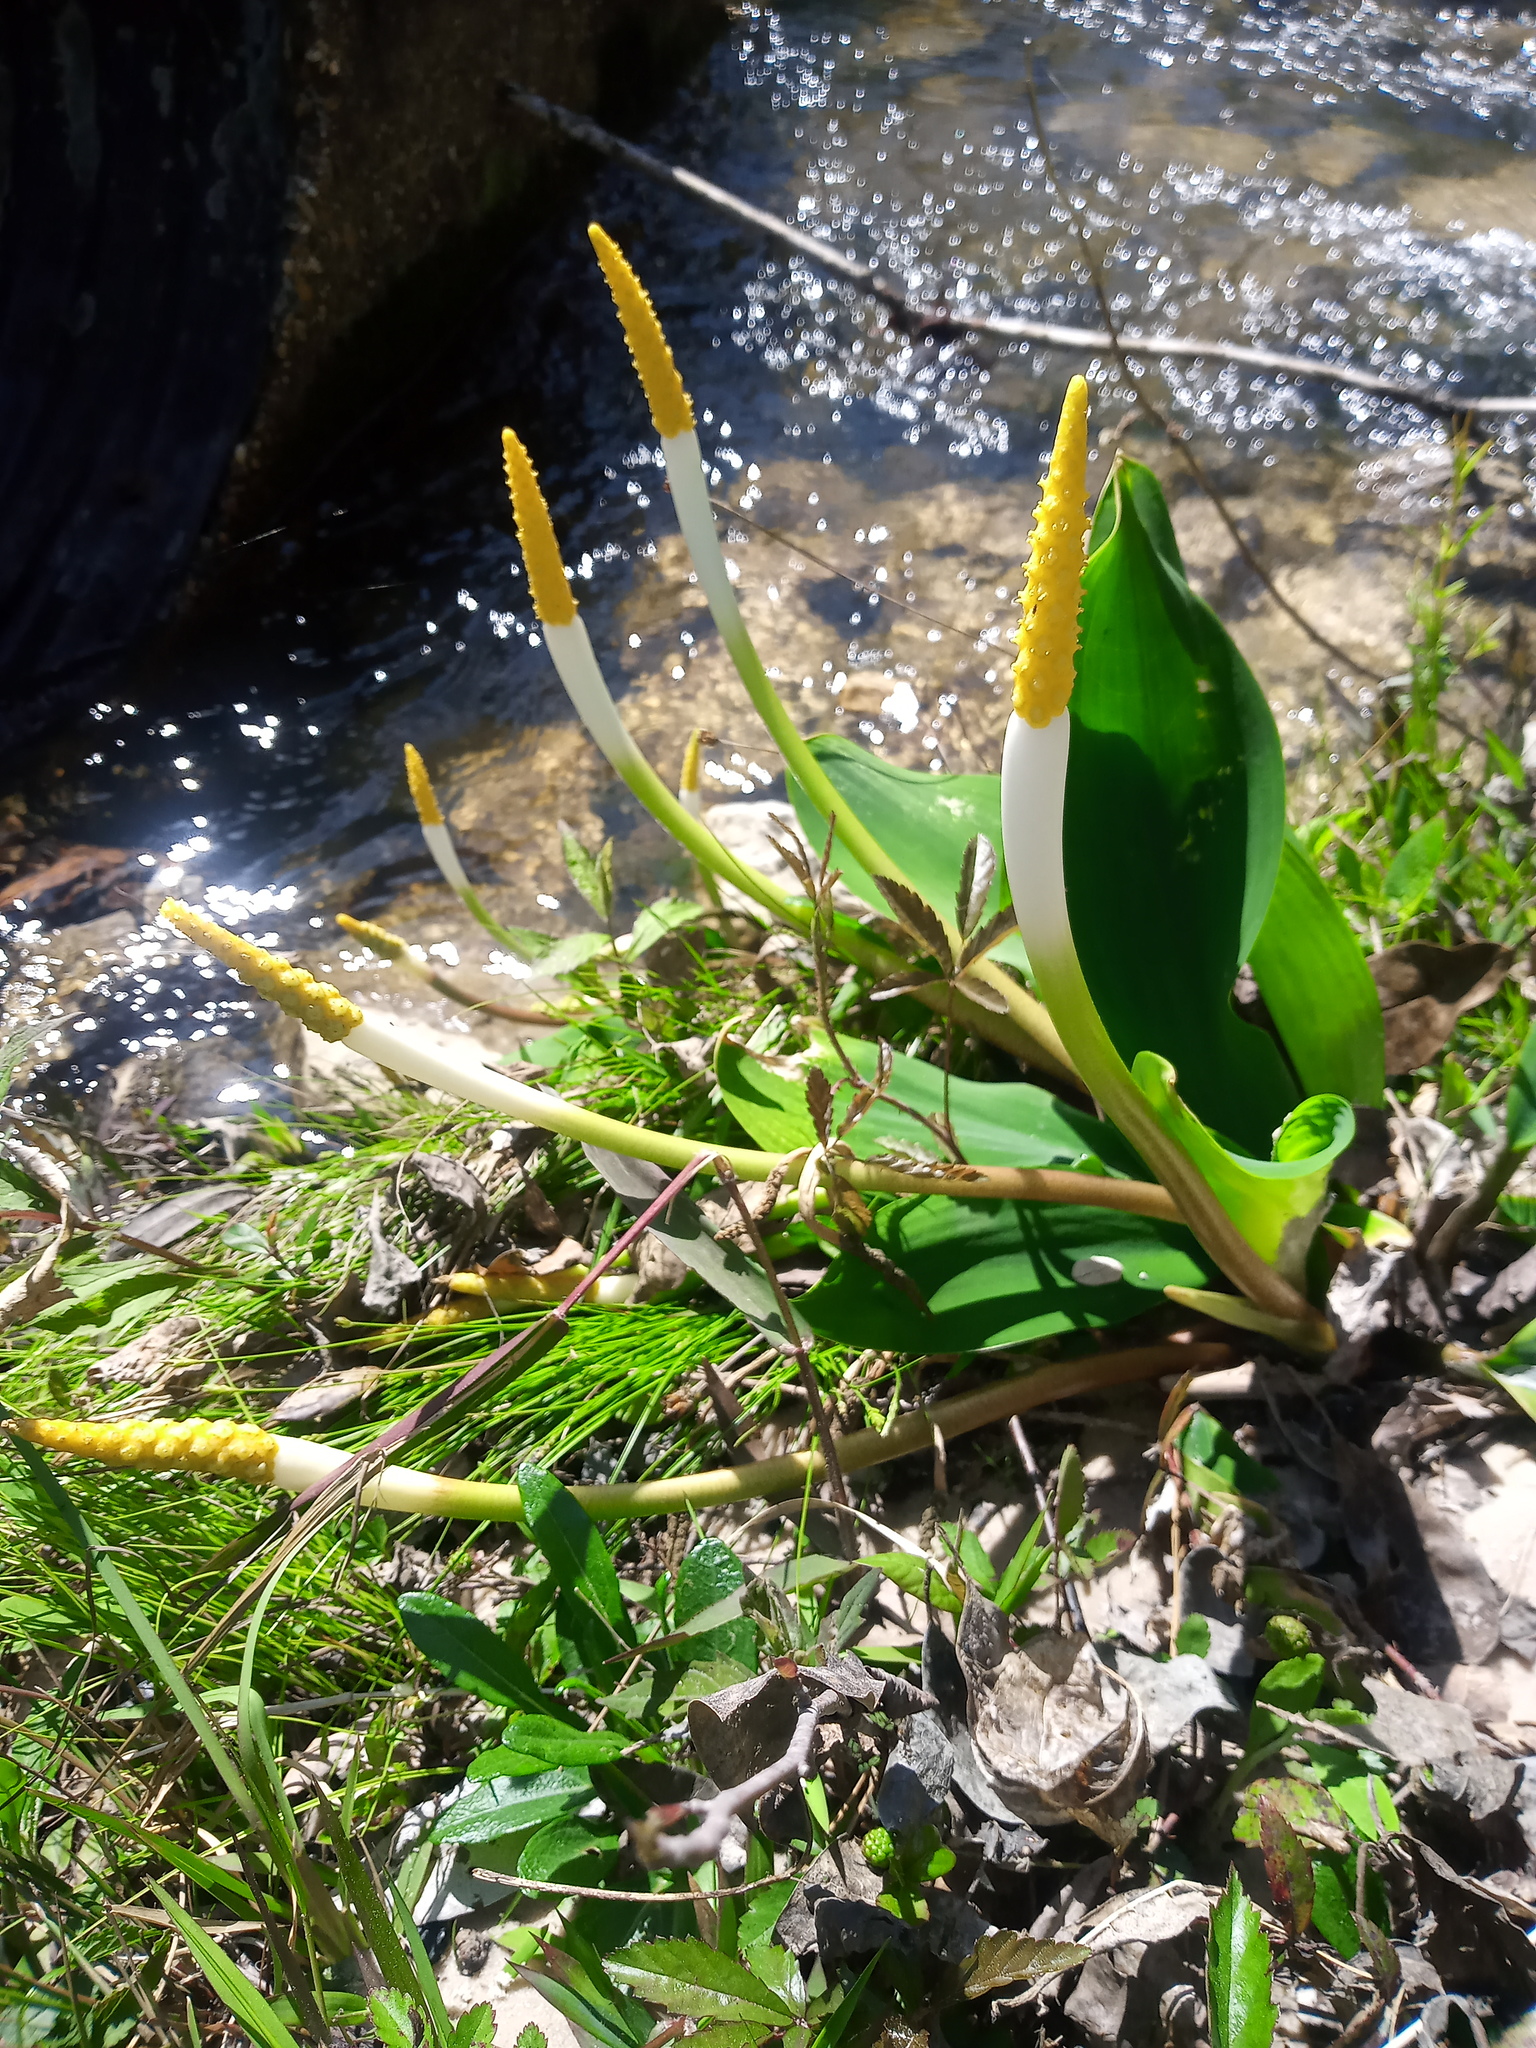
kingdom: Plantae
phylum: Tracheophyta
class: Liliopsida
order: Alismatales
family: Araceae
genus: Orontium
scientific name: Orontium aquaticum
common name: Golden-club
